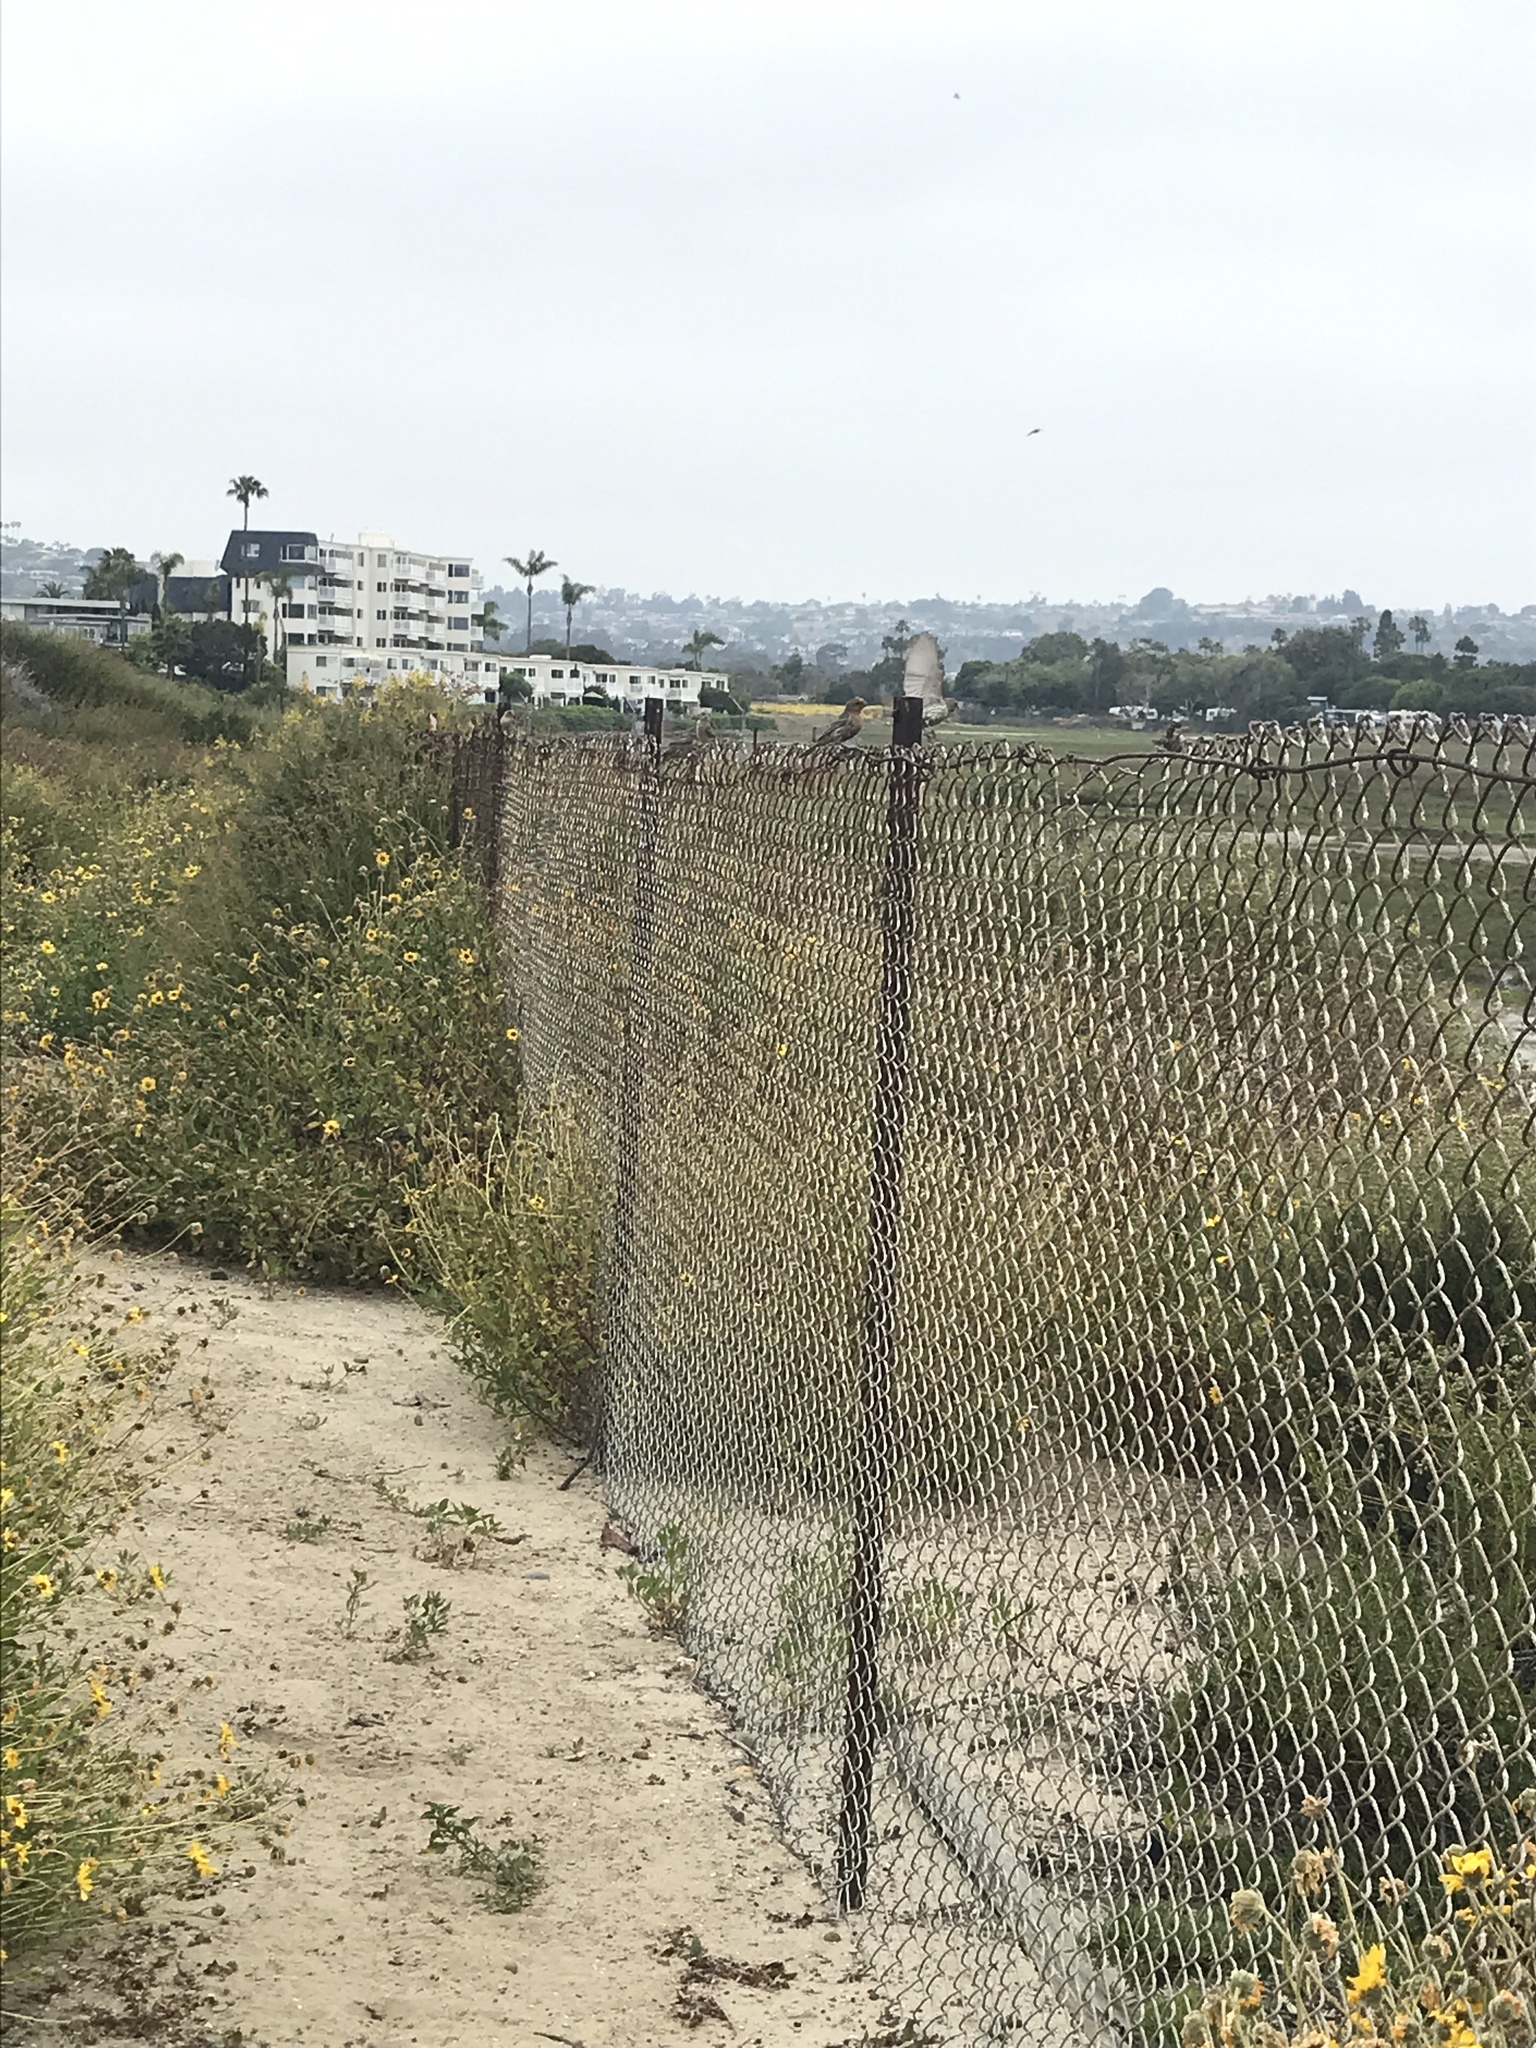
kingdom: Animalia
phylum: Chordata
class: Aves
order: Passeriformes
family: Fringillidae
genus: Haemorhous
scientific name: Haemorhous mexicanus
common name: House finch
